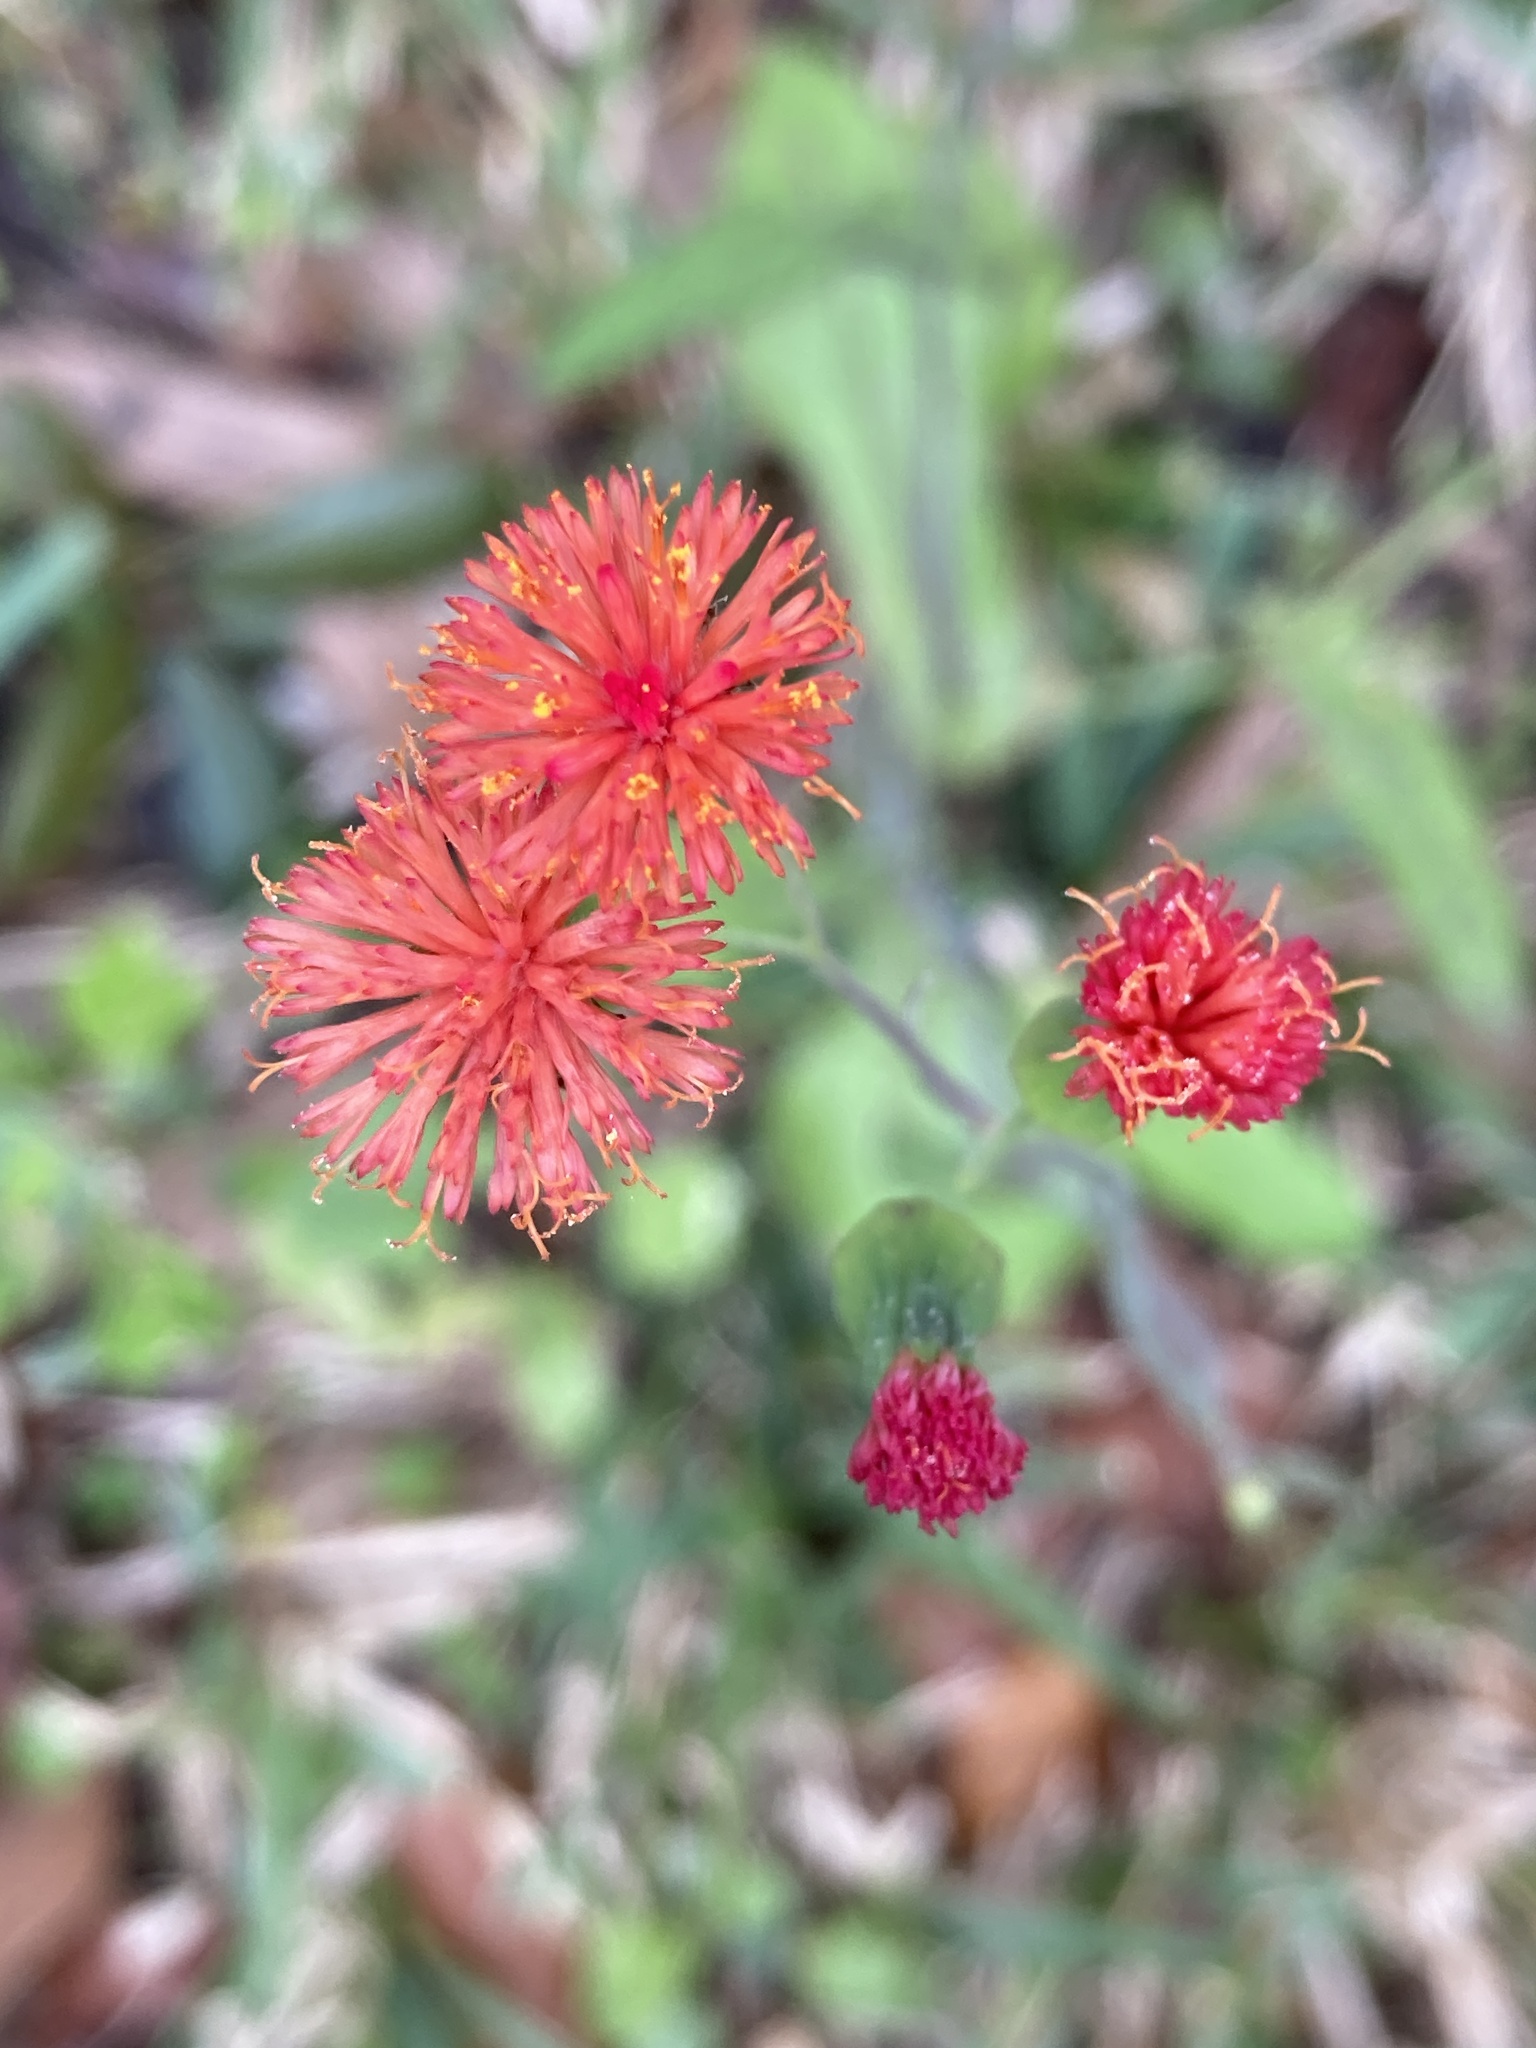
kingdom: Plantae
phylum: Tracheophyta
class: Magnoliopsida
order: Asterales
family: Asteraceae
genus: Emilia
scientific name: Emilia fosbergii
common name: Florida tasselflower
